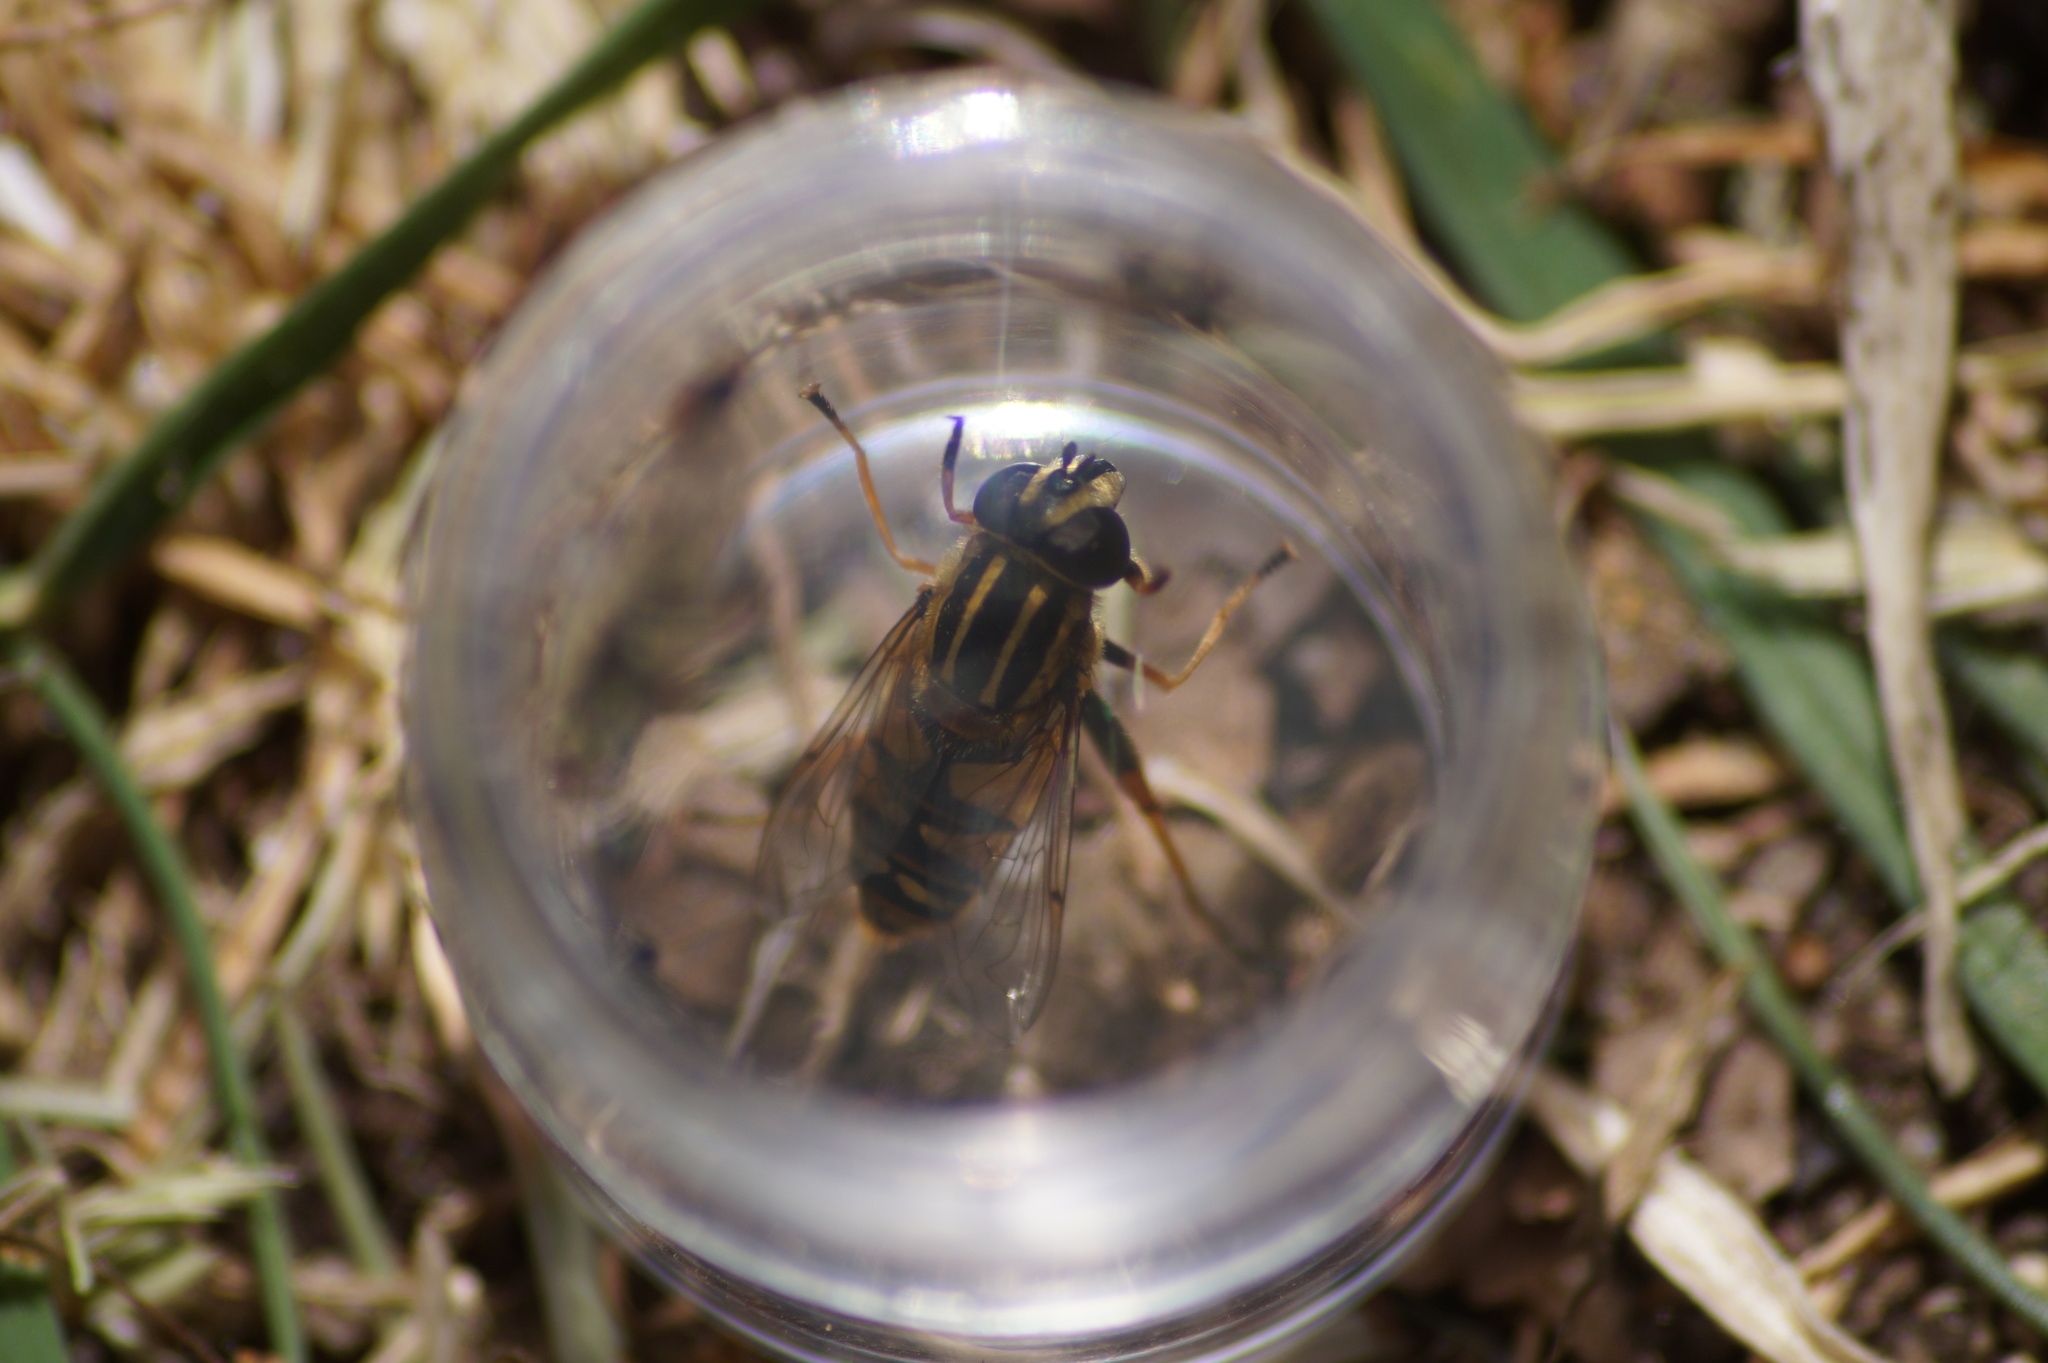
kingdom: Animalia
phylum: Arthropoda
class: Insecta
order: Diptera
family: Syrphidae
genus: Helophilus
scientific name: Helophilus pendulus
